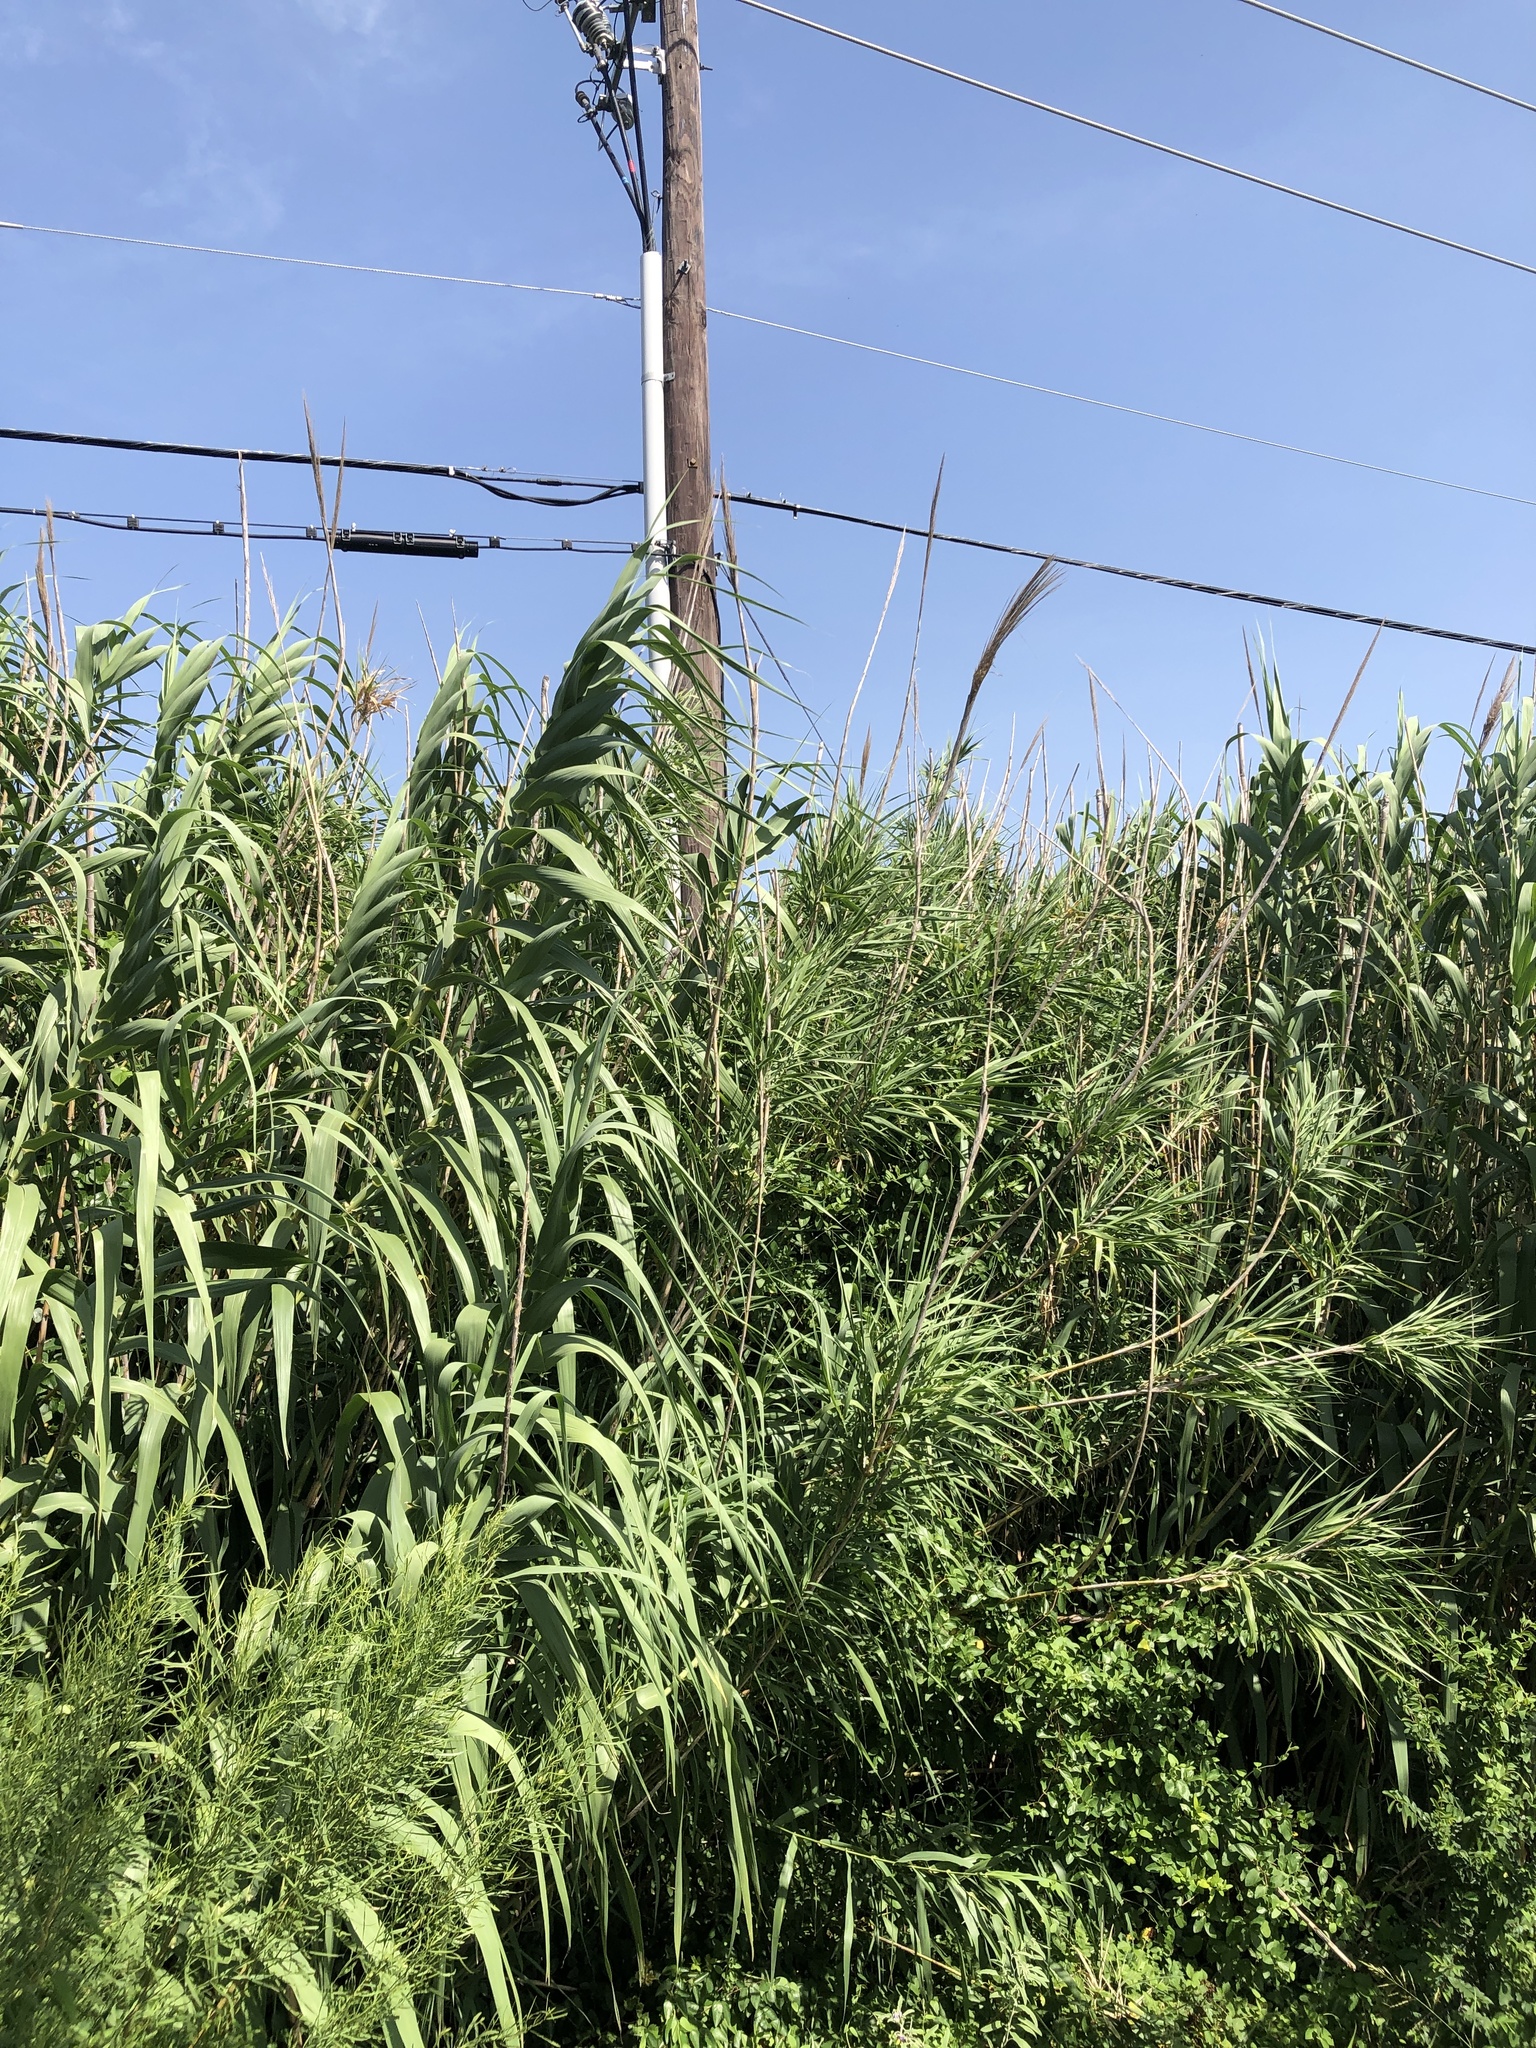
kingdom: Plantae
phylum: Tracheophyta
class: Liliopsida
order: Poales
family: Poaceae
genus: Arundo
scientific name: Arundo donax
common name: Giant reed
